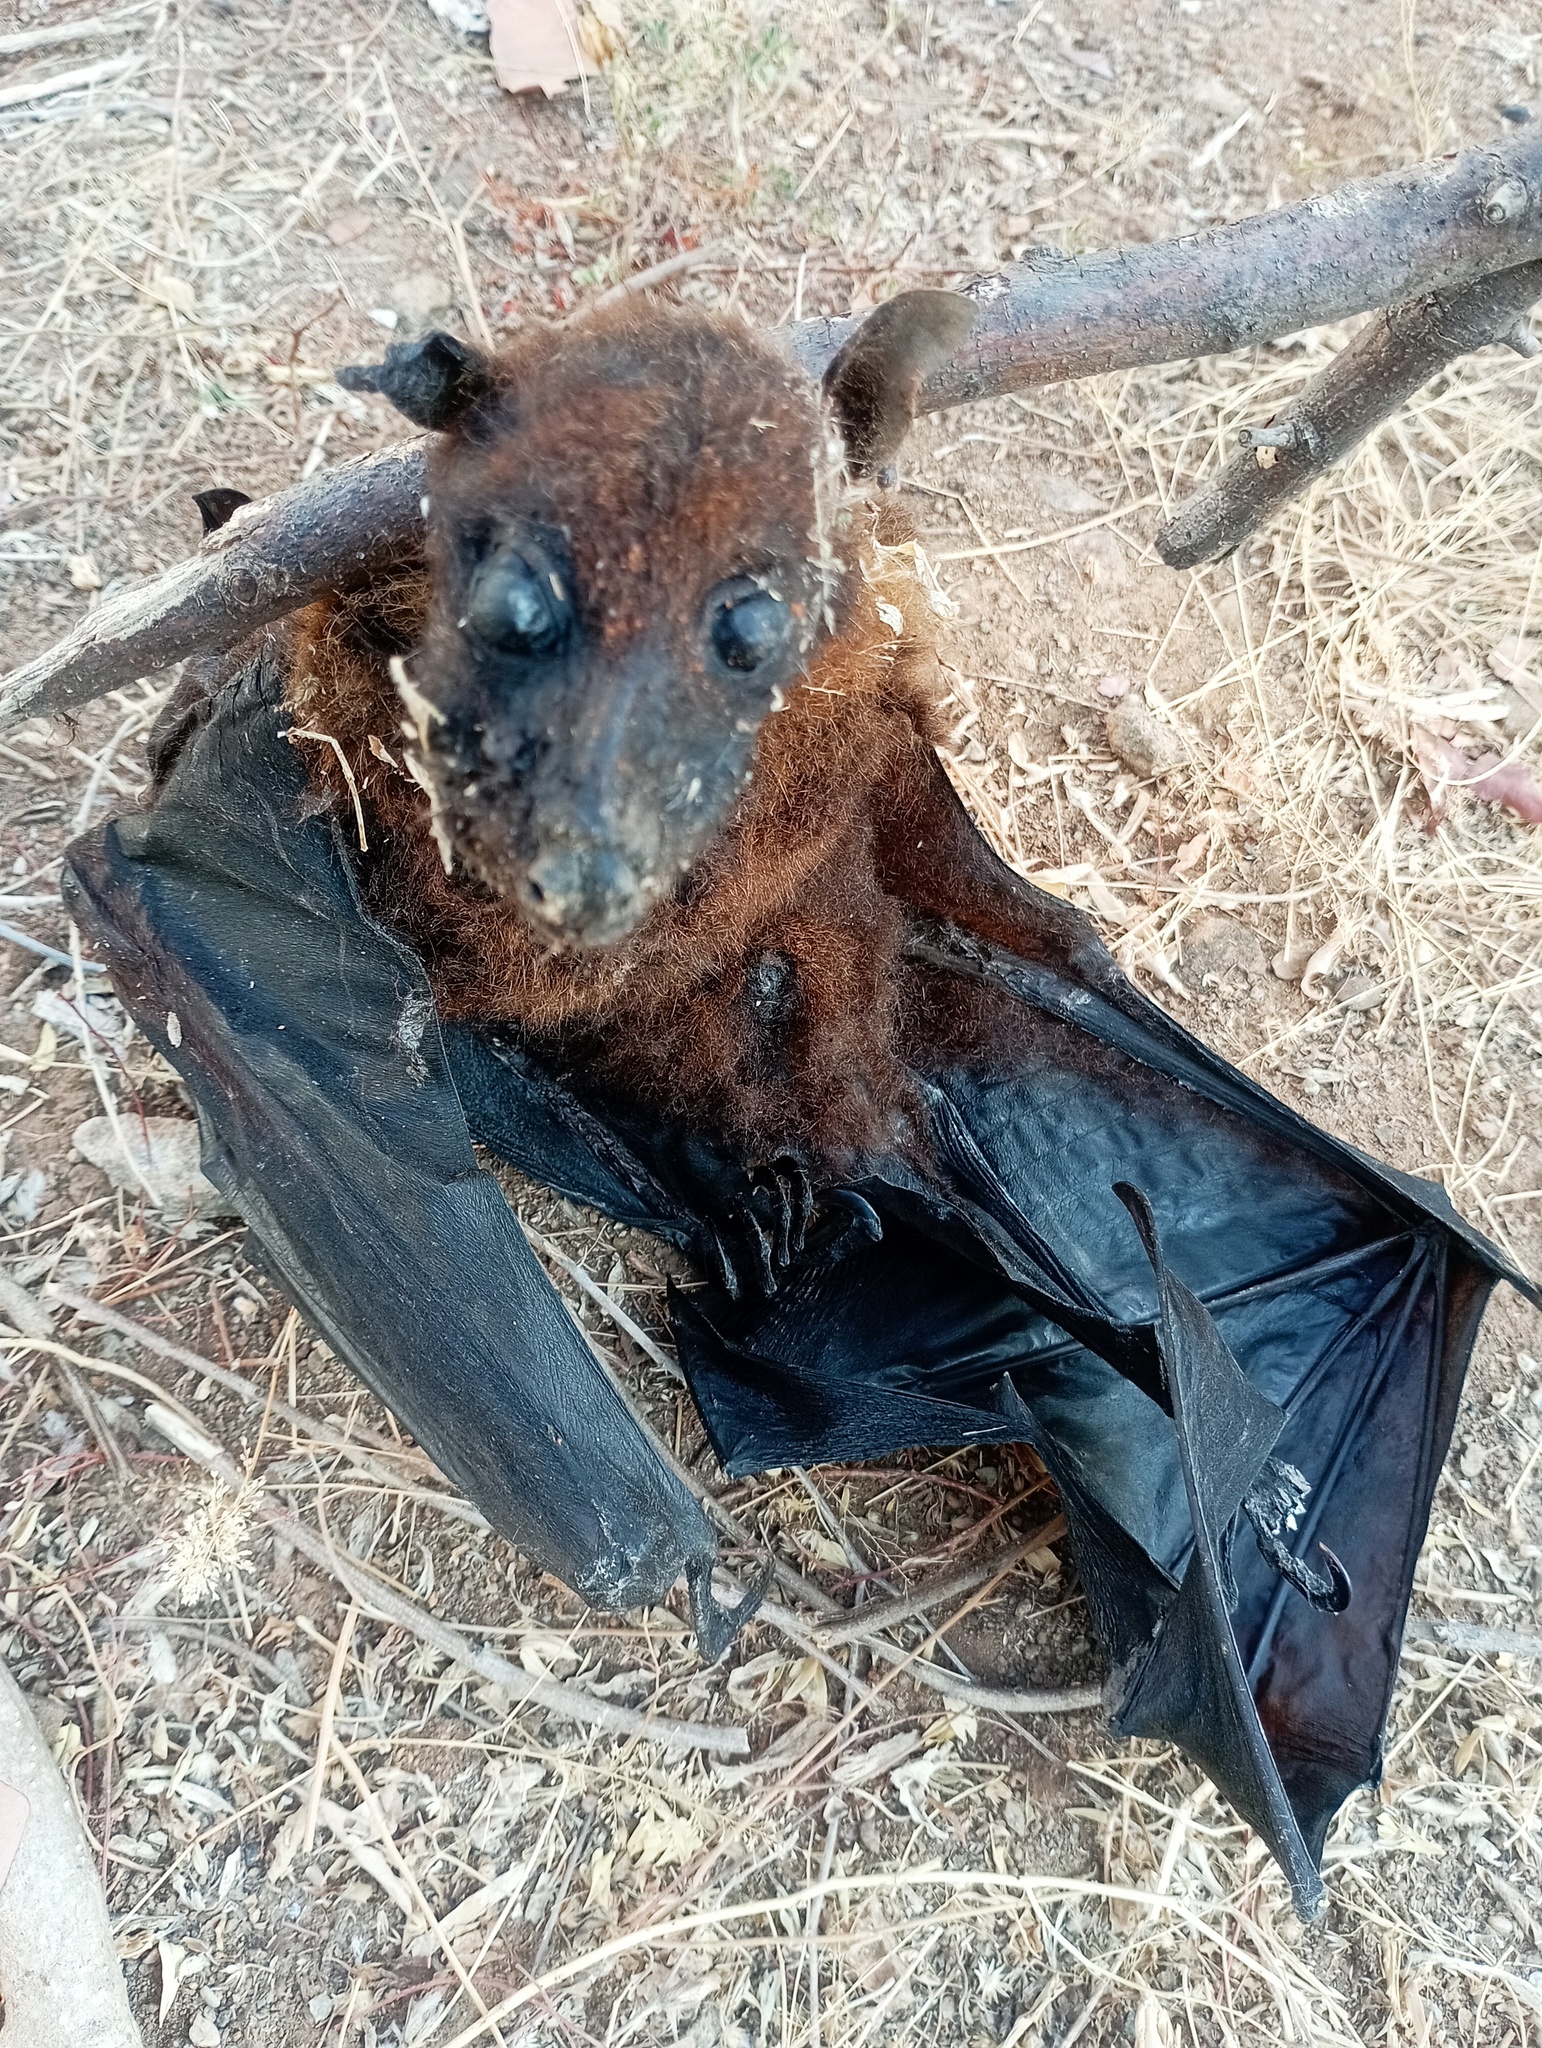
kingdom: Animalia
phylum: Chordata
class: Mammalia
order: Chiroptera
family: Pteropodidae
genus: Pteropus
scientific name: Pteropus vampyrus
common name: Large flying fox
